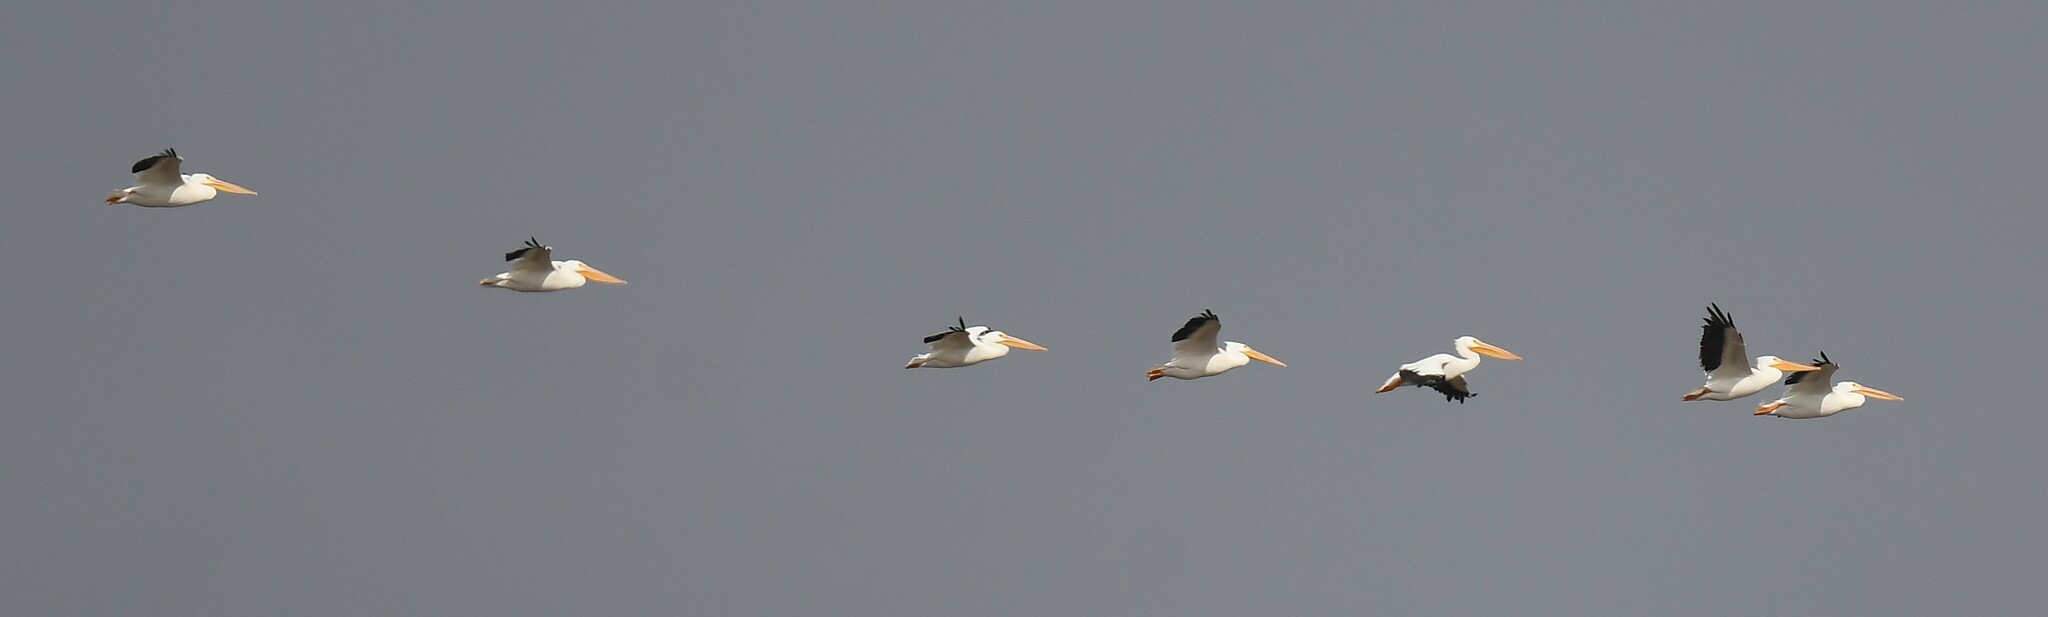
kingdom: Animalia
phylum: Chordata
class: Aves
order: Pelecaniformes
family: Pelecanidae
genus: Pelecanus
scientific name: Pelecanus erythrorhynchos
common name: American white pelican
